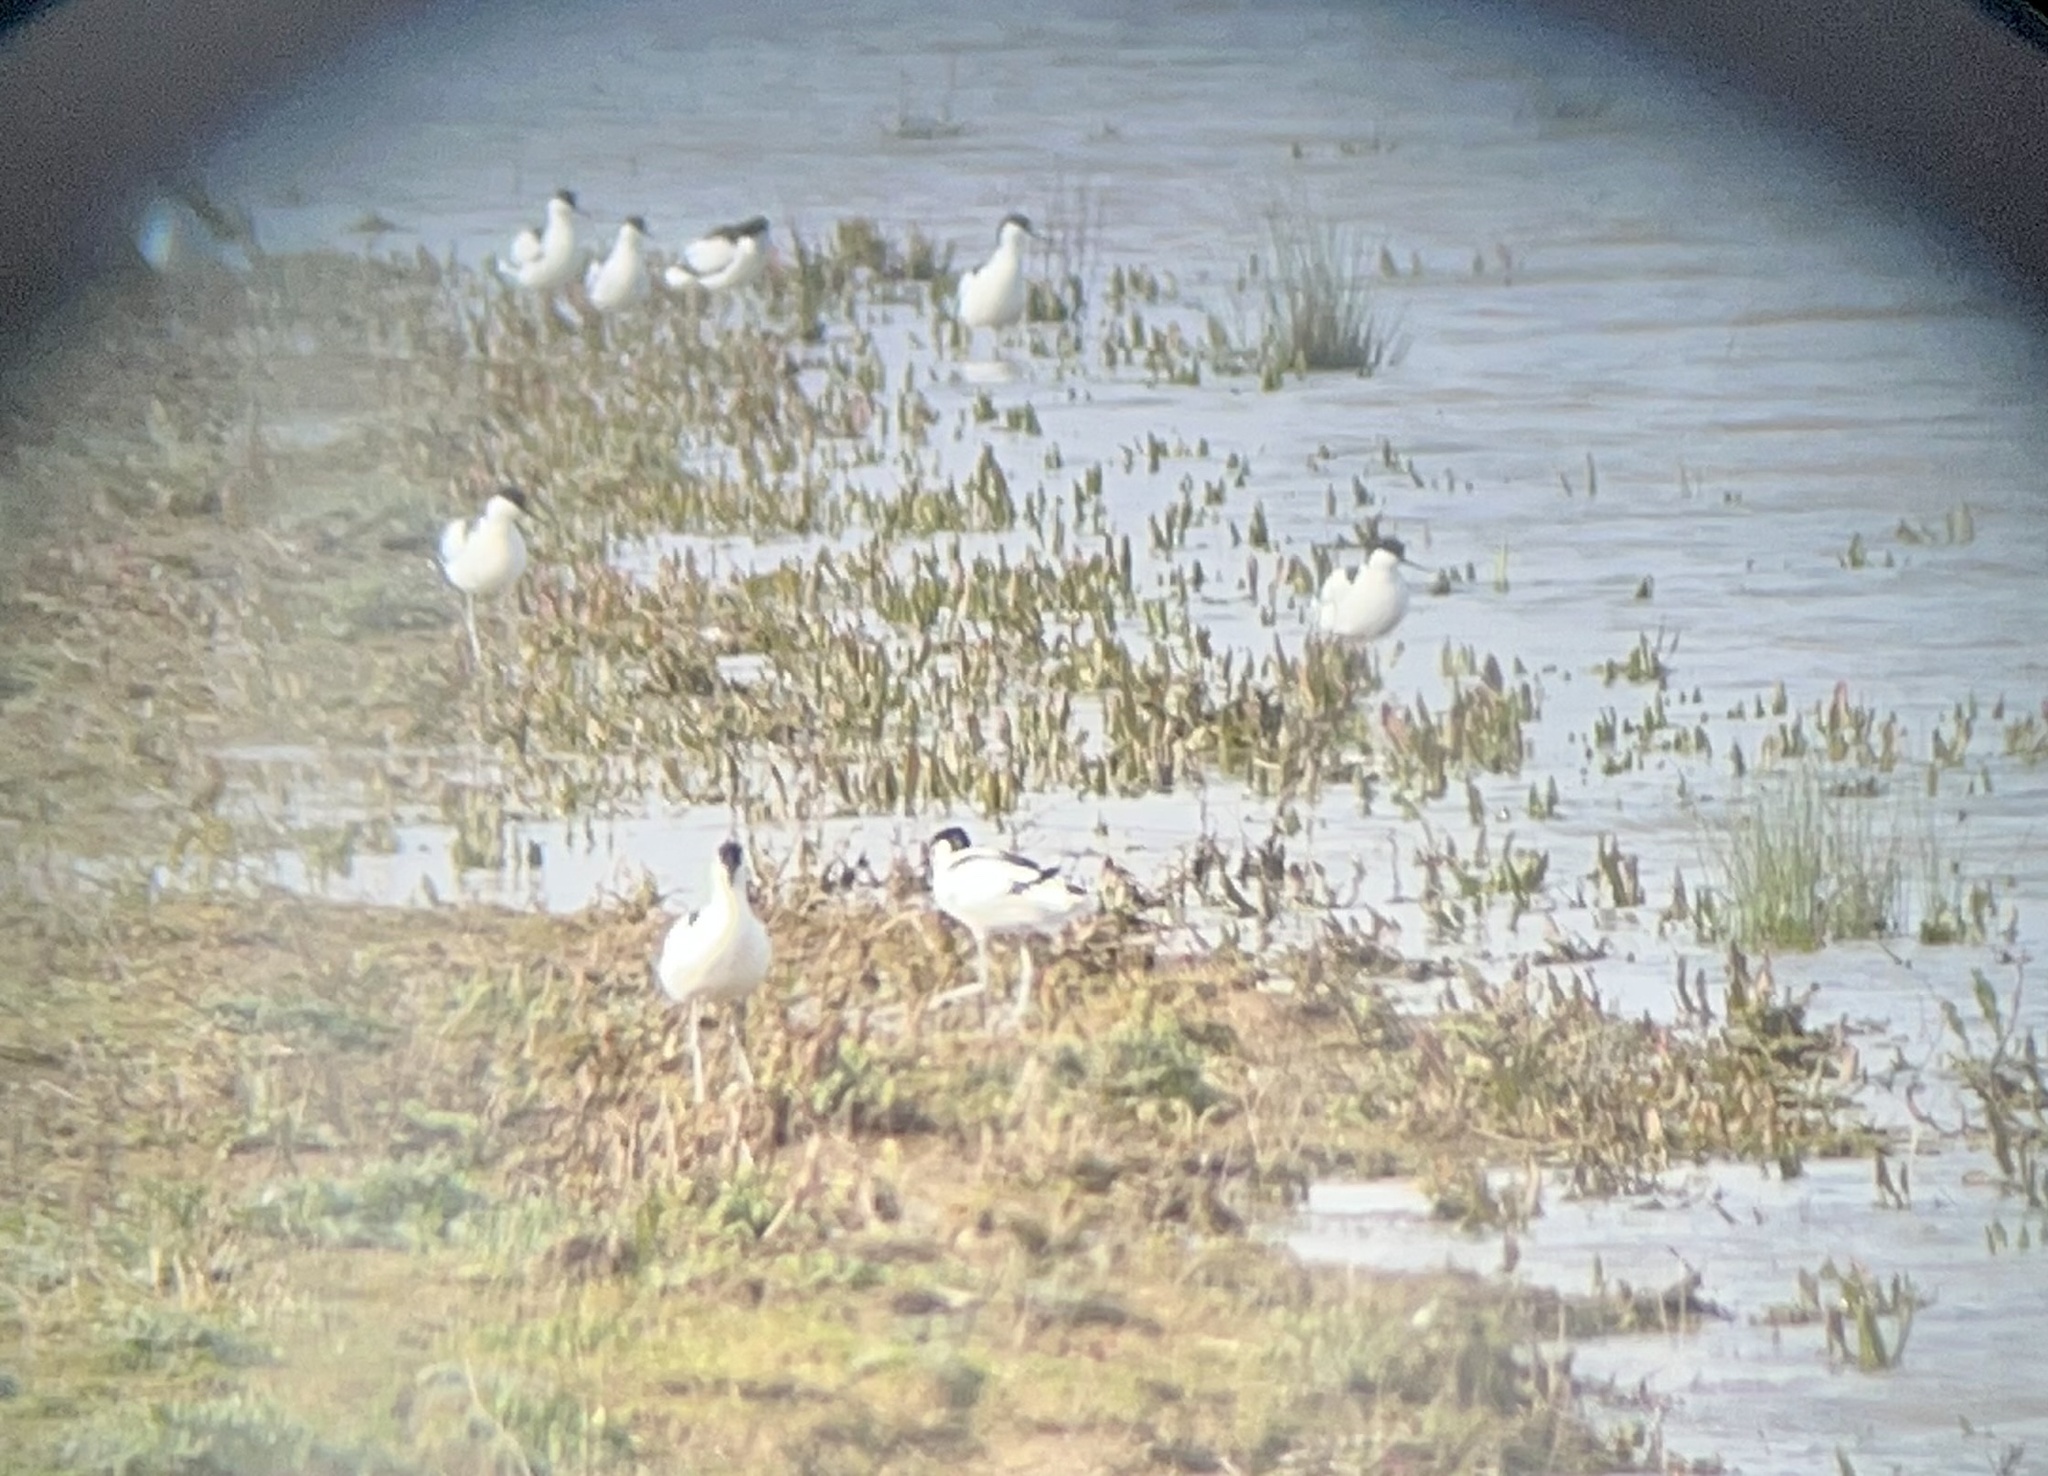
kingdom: Animalia
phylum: Chordata
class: Aves
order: Charadriiformes
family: Recurvirostridae
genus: Recurvirostra
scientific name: Recurvirostra avosetta
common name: Pied avocet
